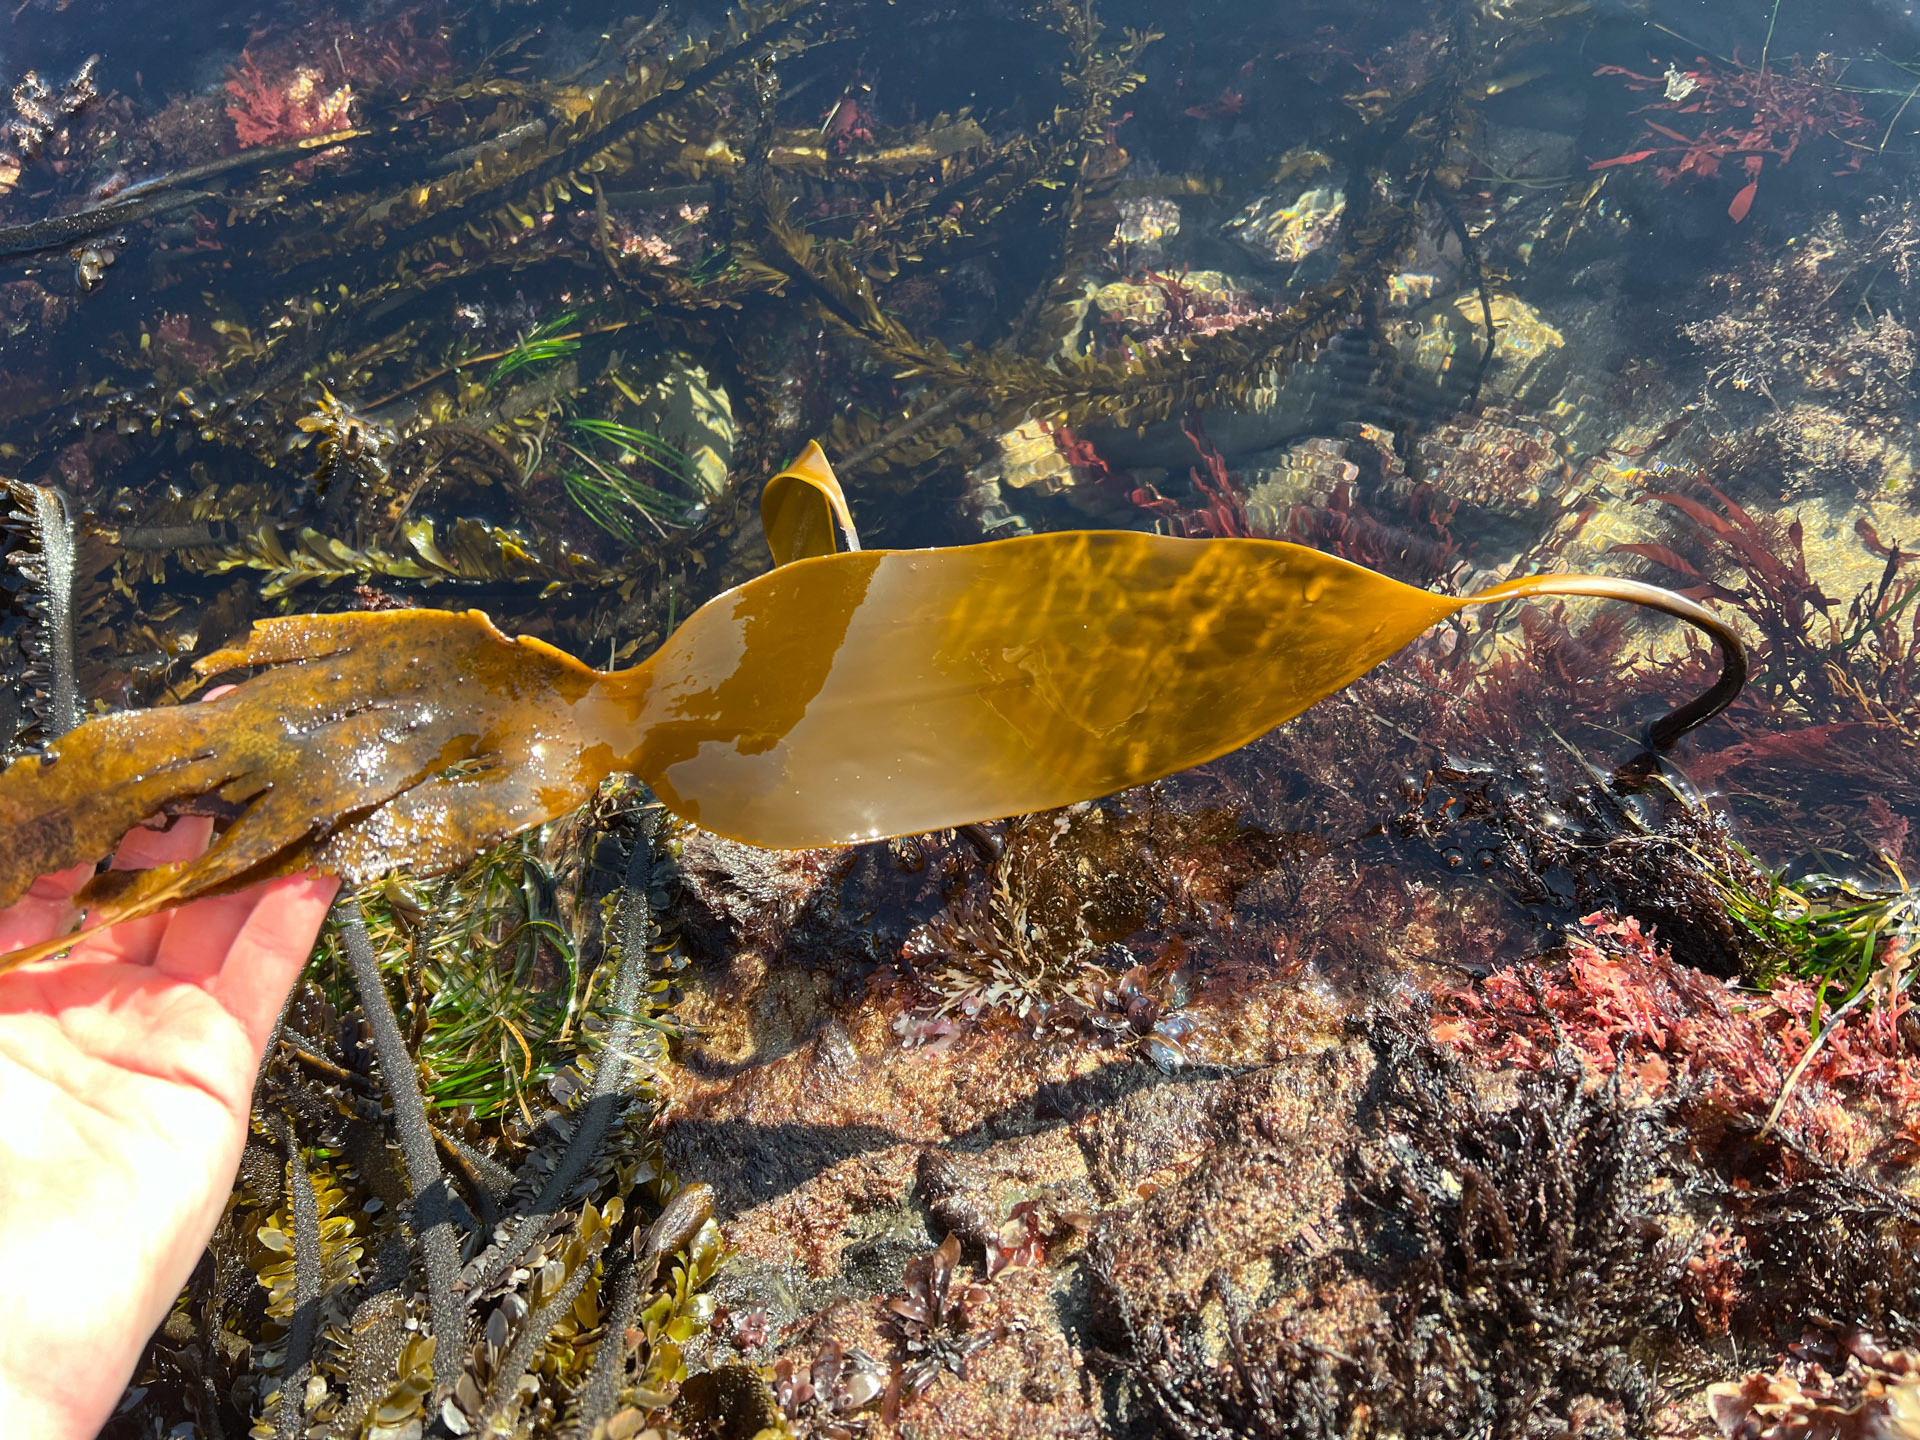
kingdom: Chromista
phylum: Ochrophyta
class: Phaeophyceae
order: Laminariales
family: Laminariaceae
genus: Laminaria
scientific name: Laminaria setchellii
